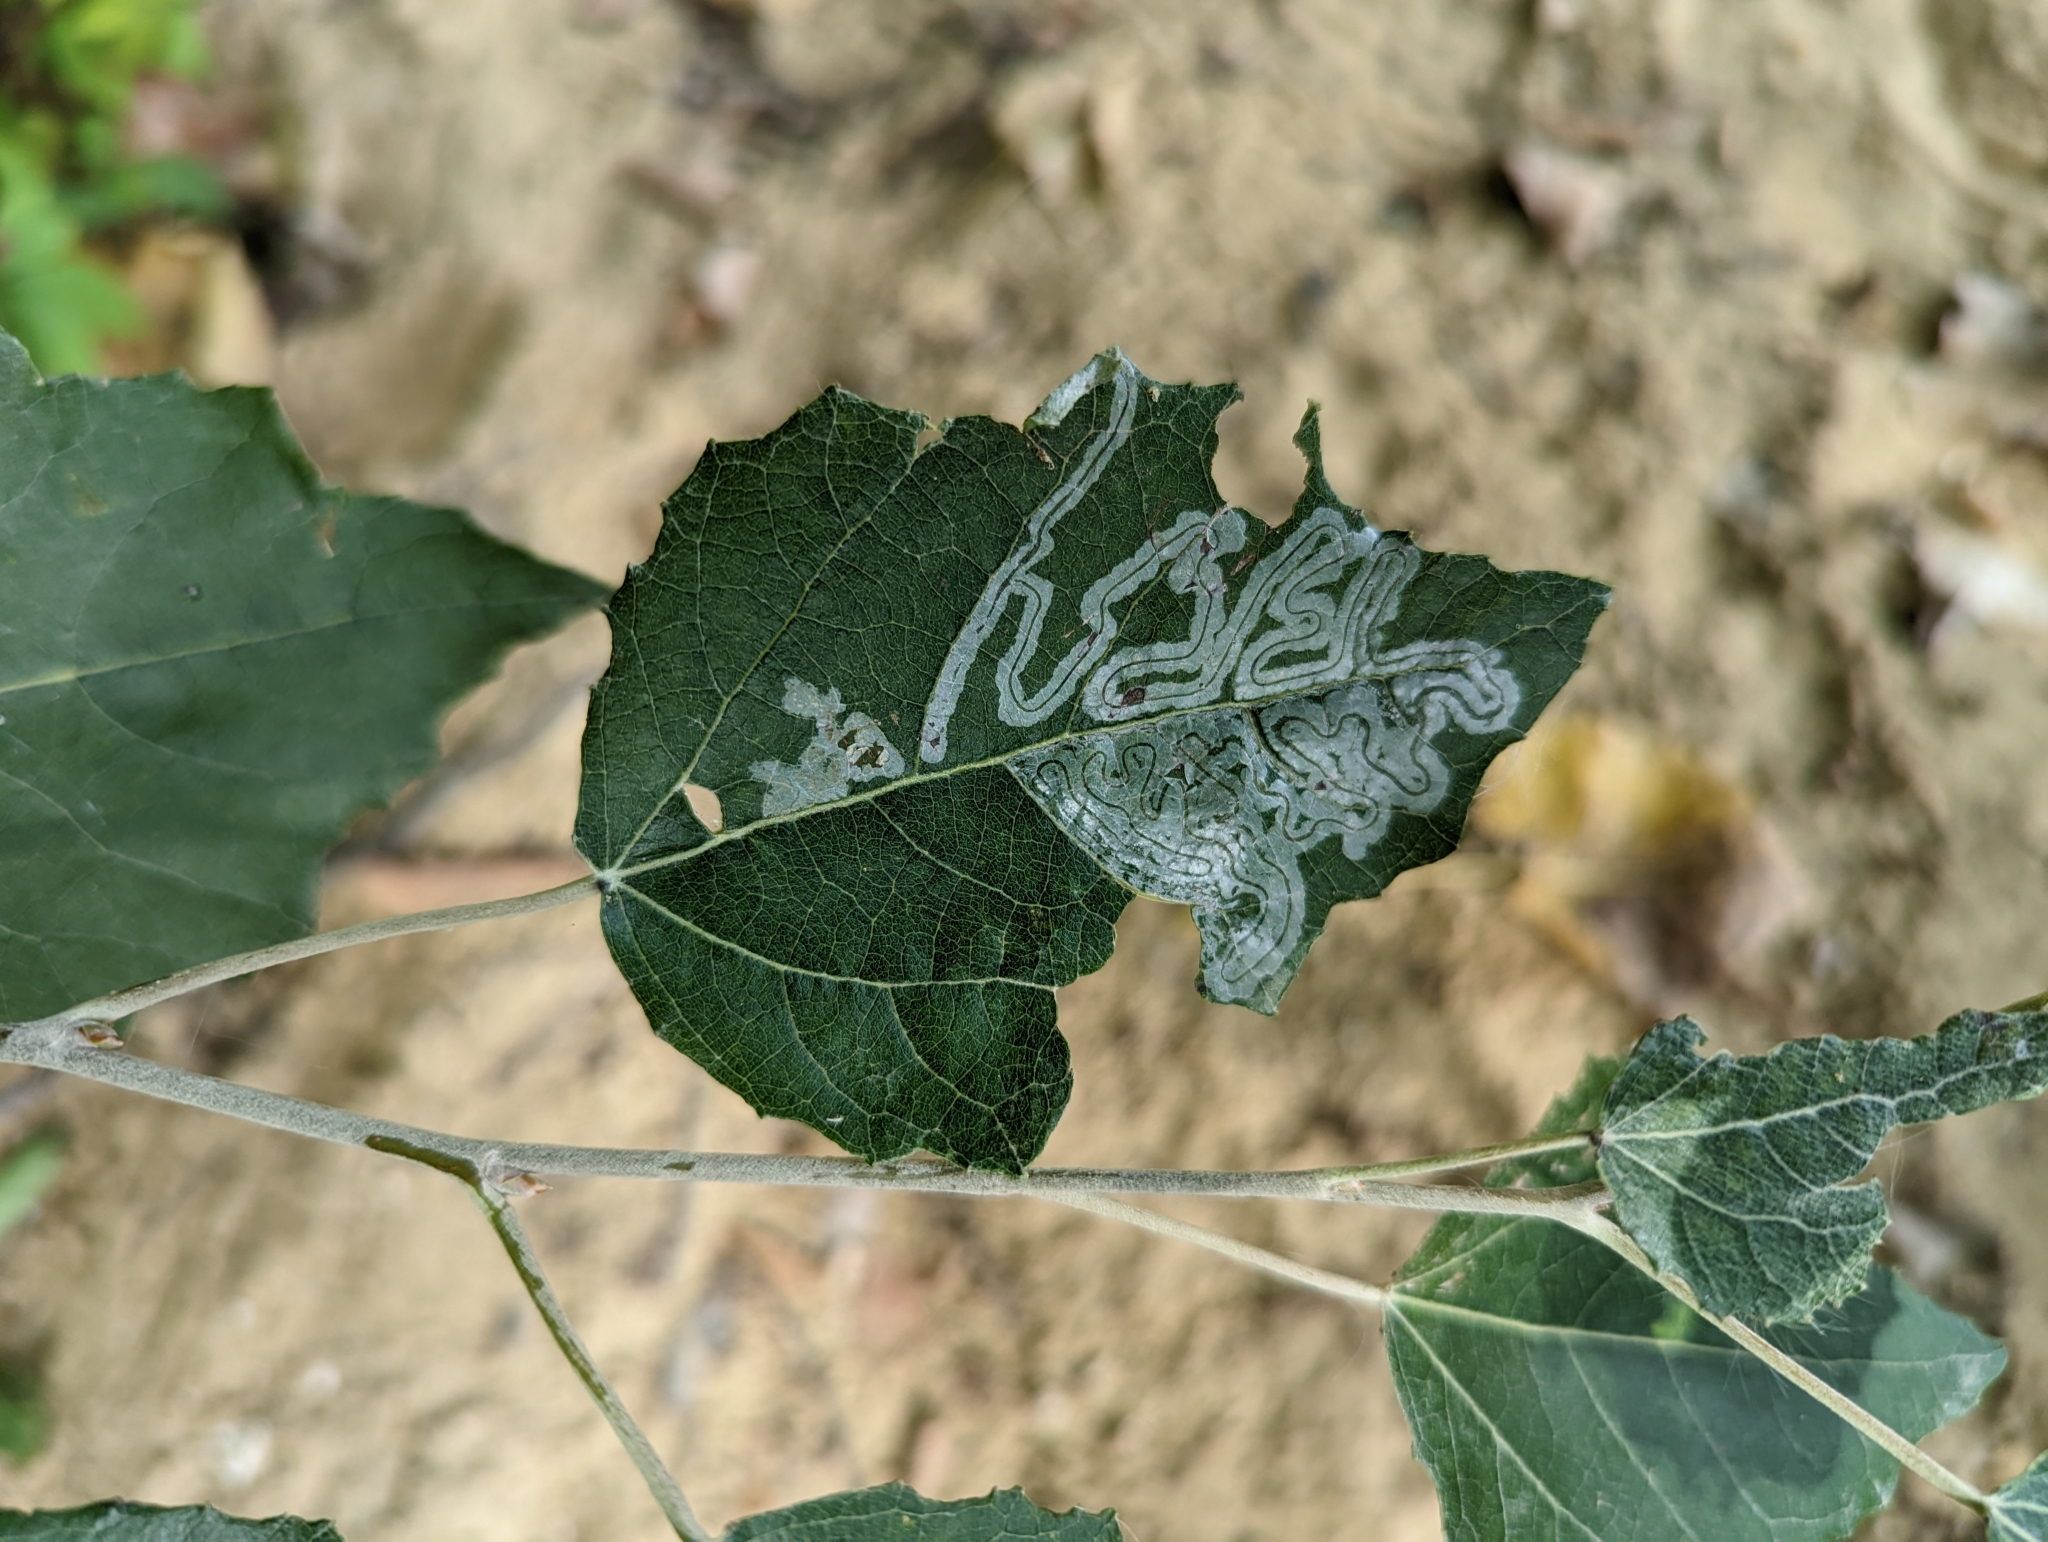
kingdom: Animalia
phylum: Arthropoda
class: Insecta
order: Lepidoptera
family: Gracillariidae
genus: Phyllocnistis
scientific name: Phyllocnistis populiella
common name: Aspen serpentine leafminer moth
